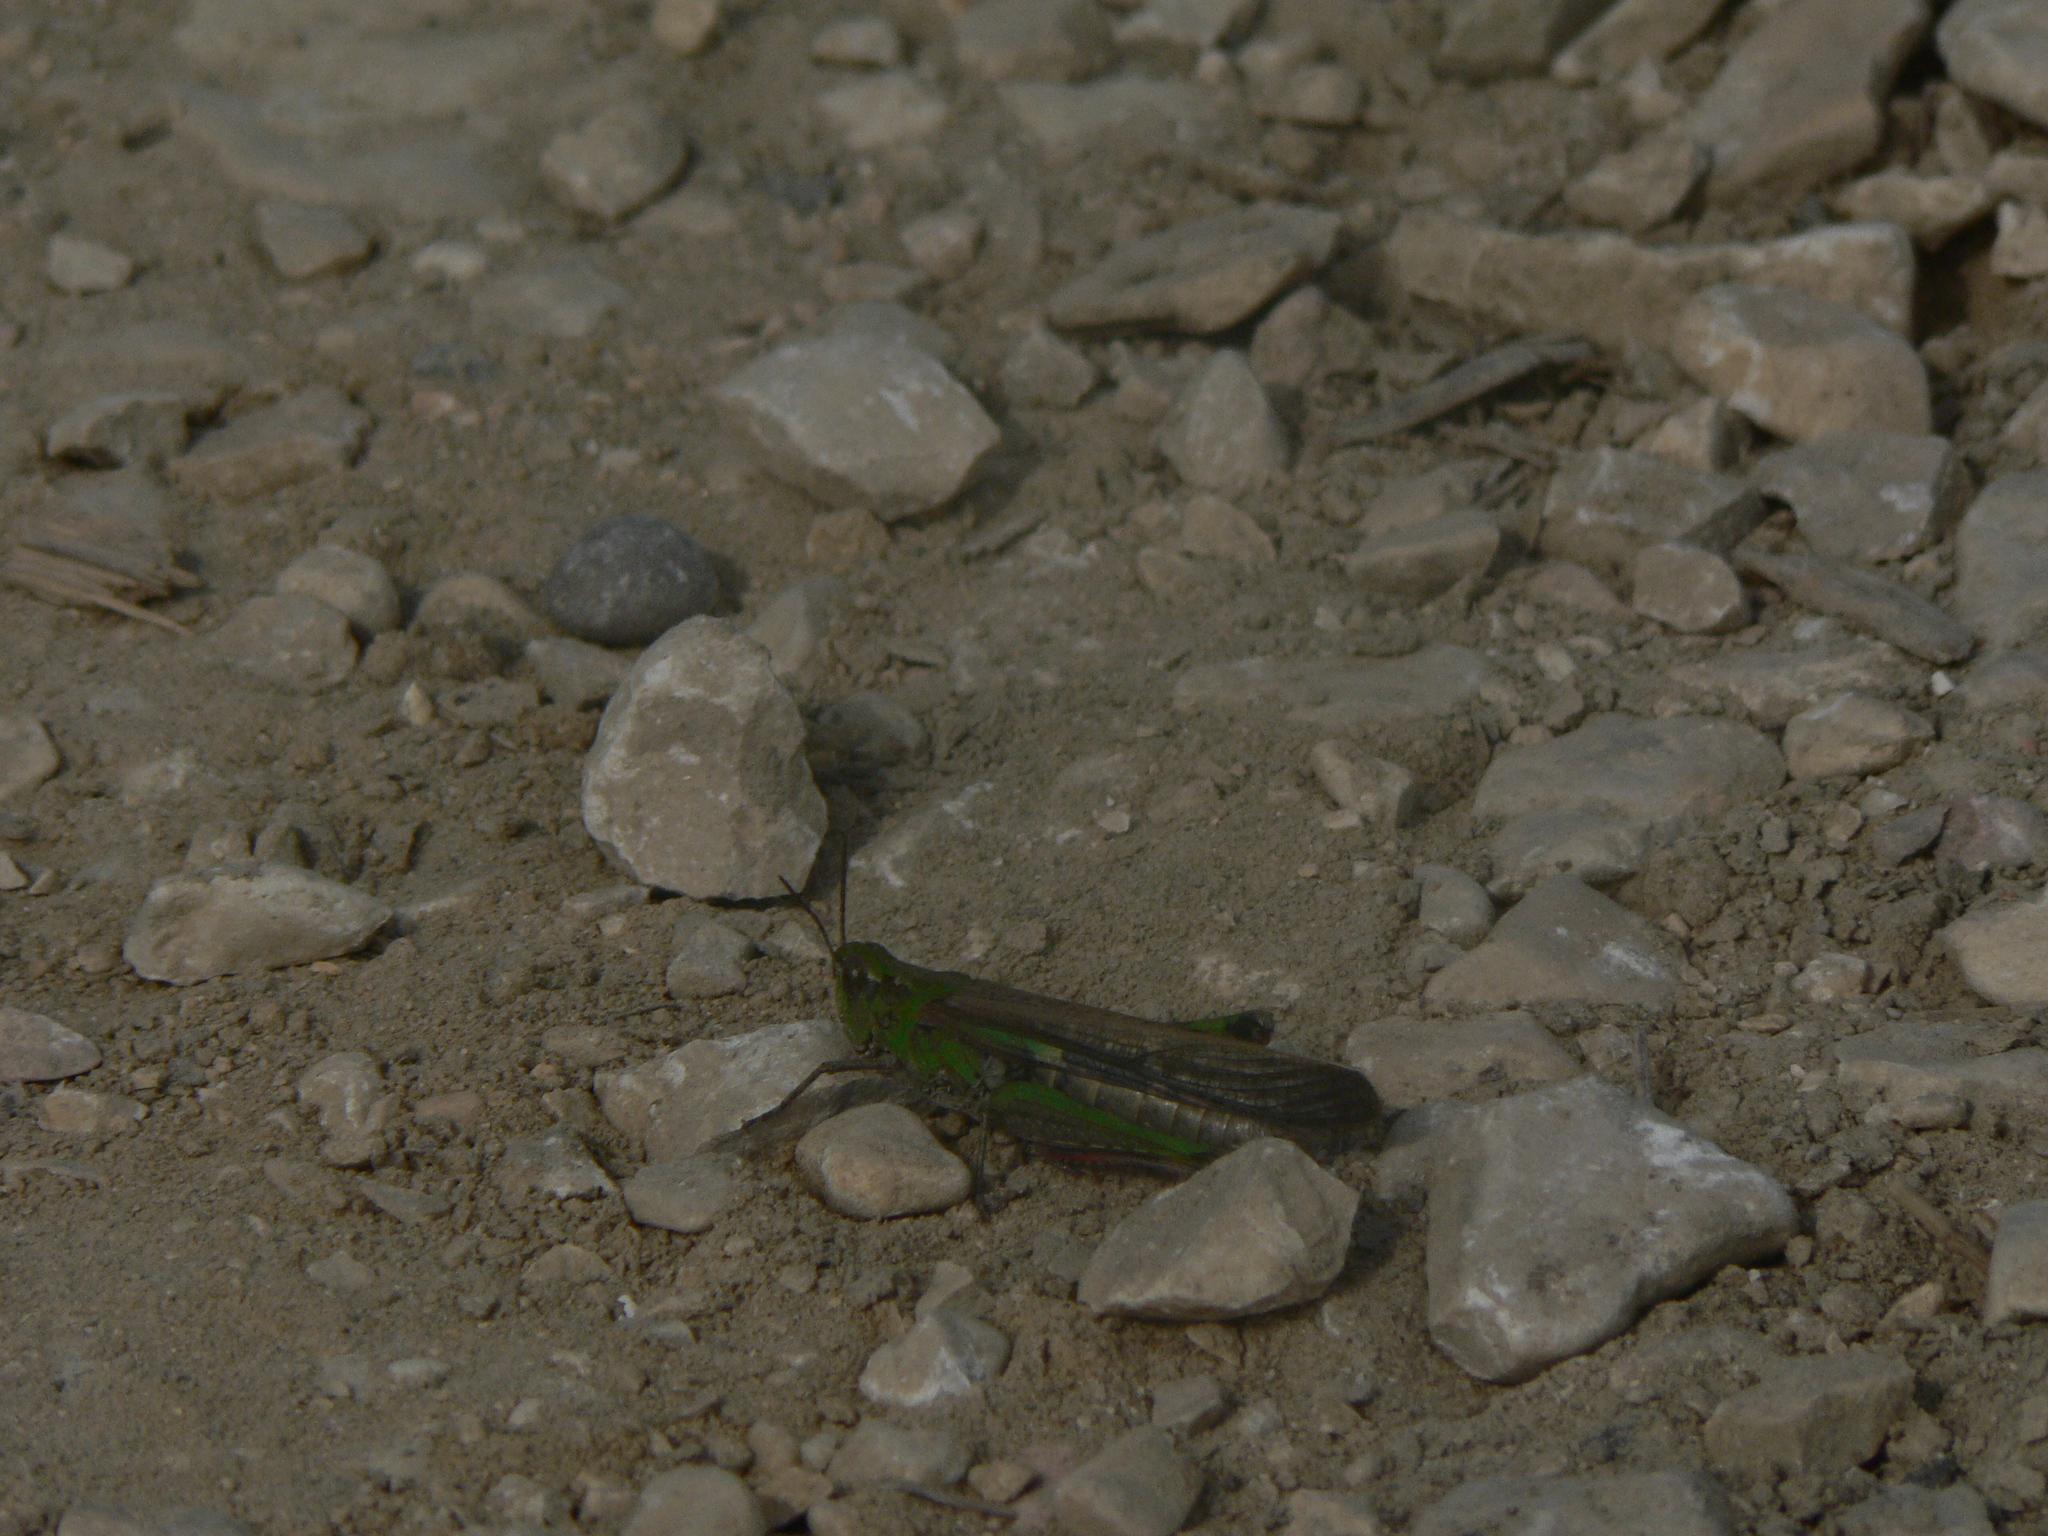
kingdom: Animalia
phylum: Arthropoda
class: Insecta
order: Orthoptera
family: Acrididae
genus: Aiolopus
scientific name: Aiolopus puissanti
